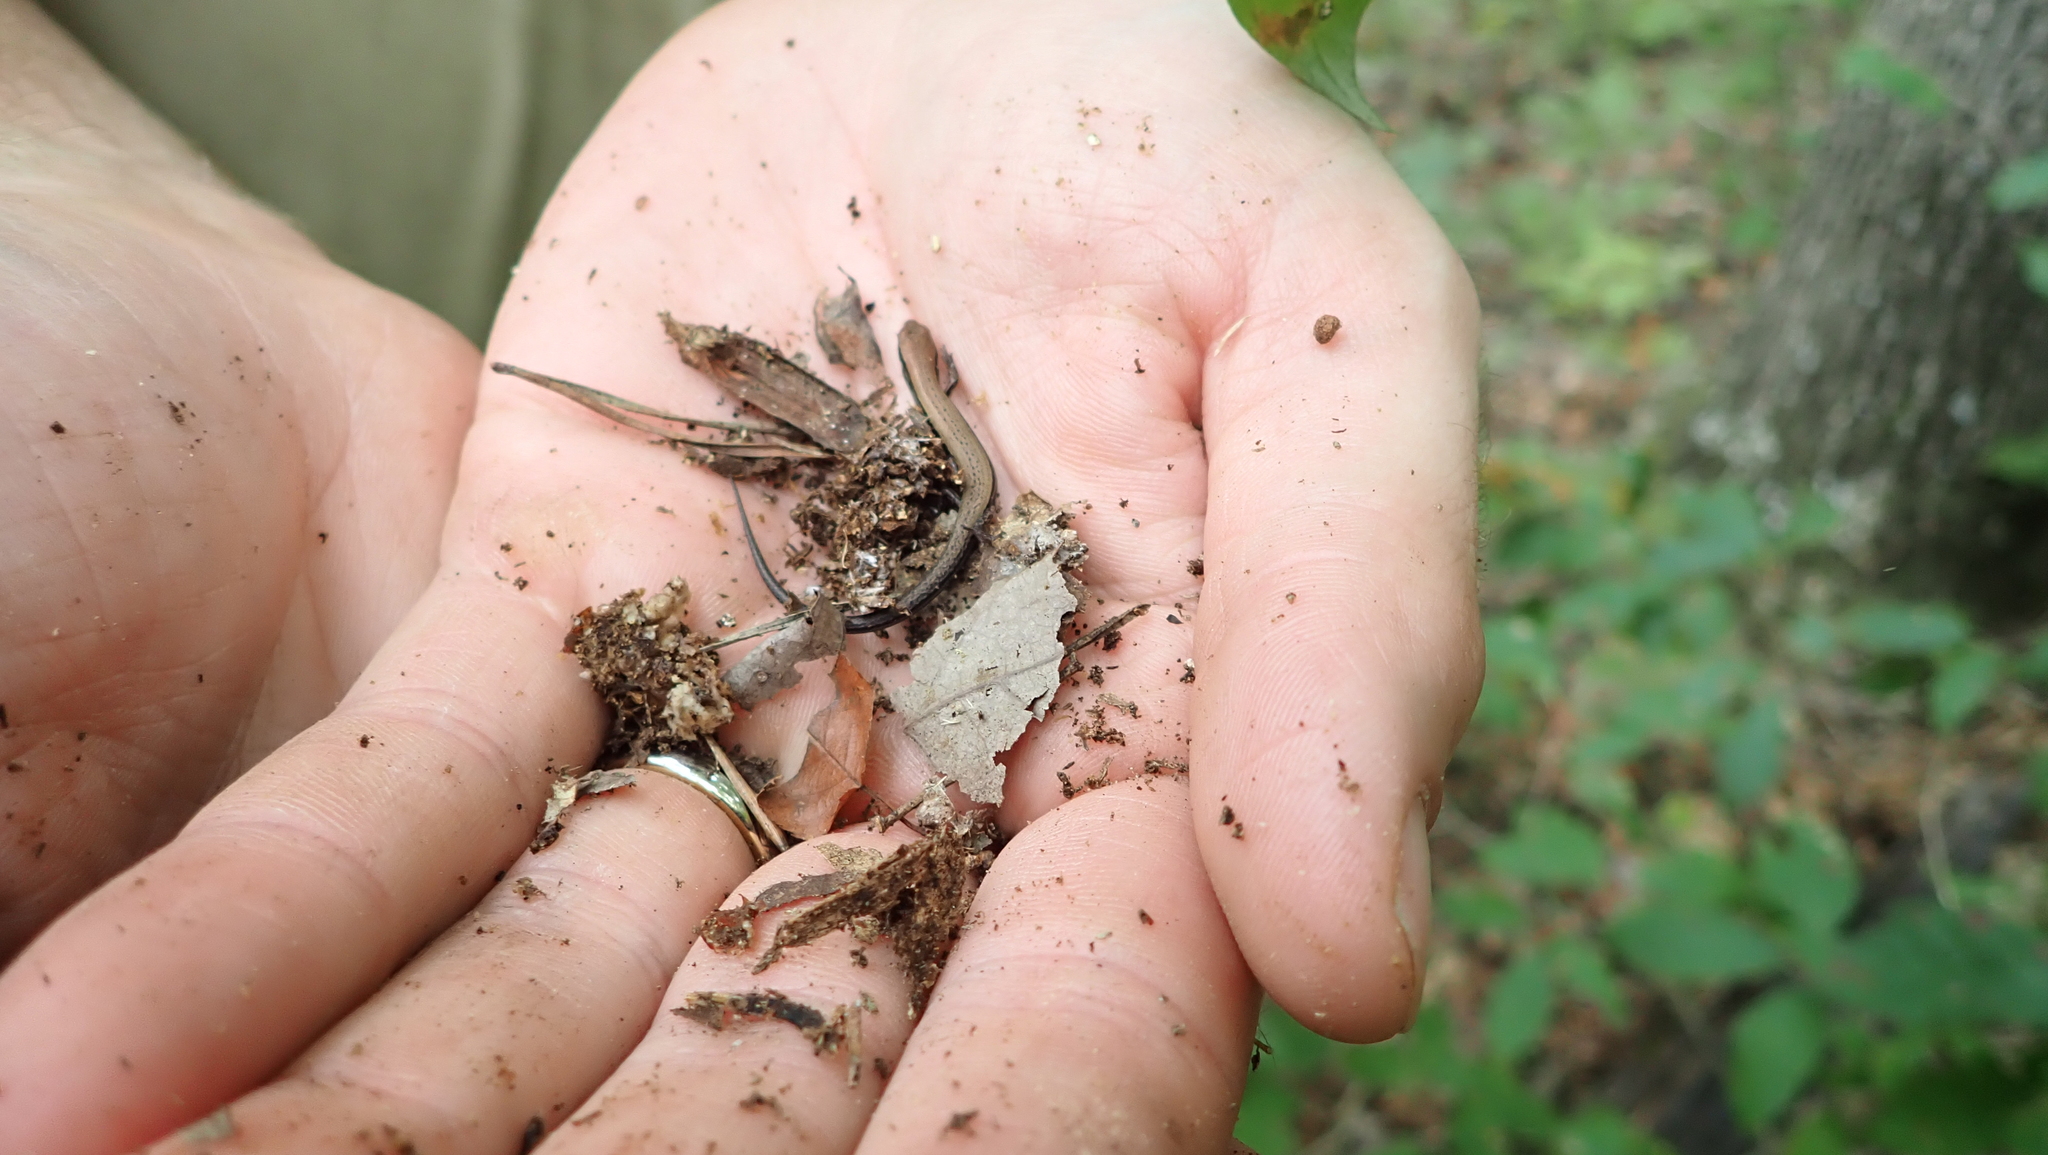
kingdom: Animalia
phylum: Chordata
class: Squamata
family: Scincidae
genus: Scincella
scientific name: Scincella lateralis
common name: Ground skink
